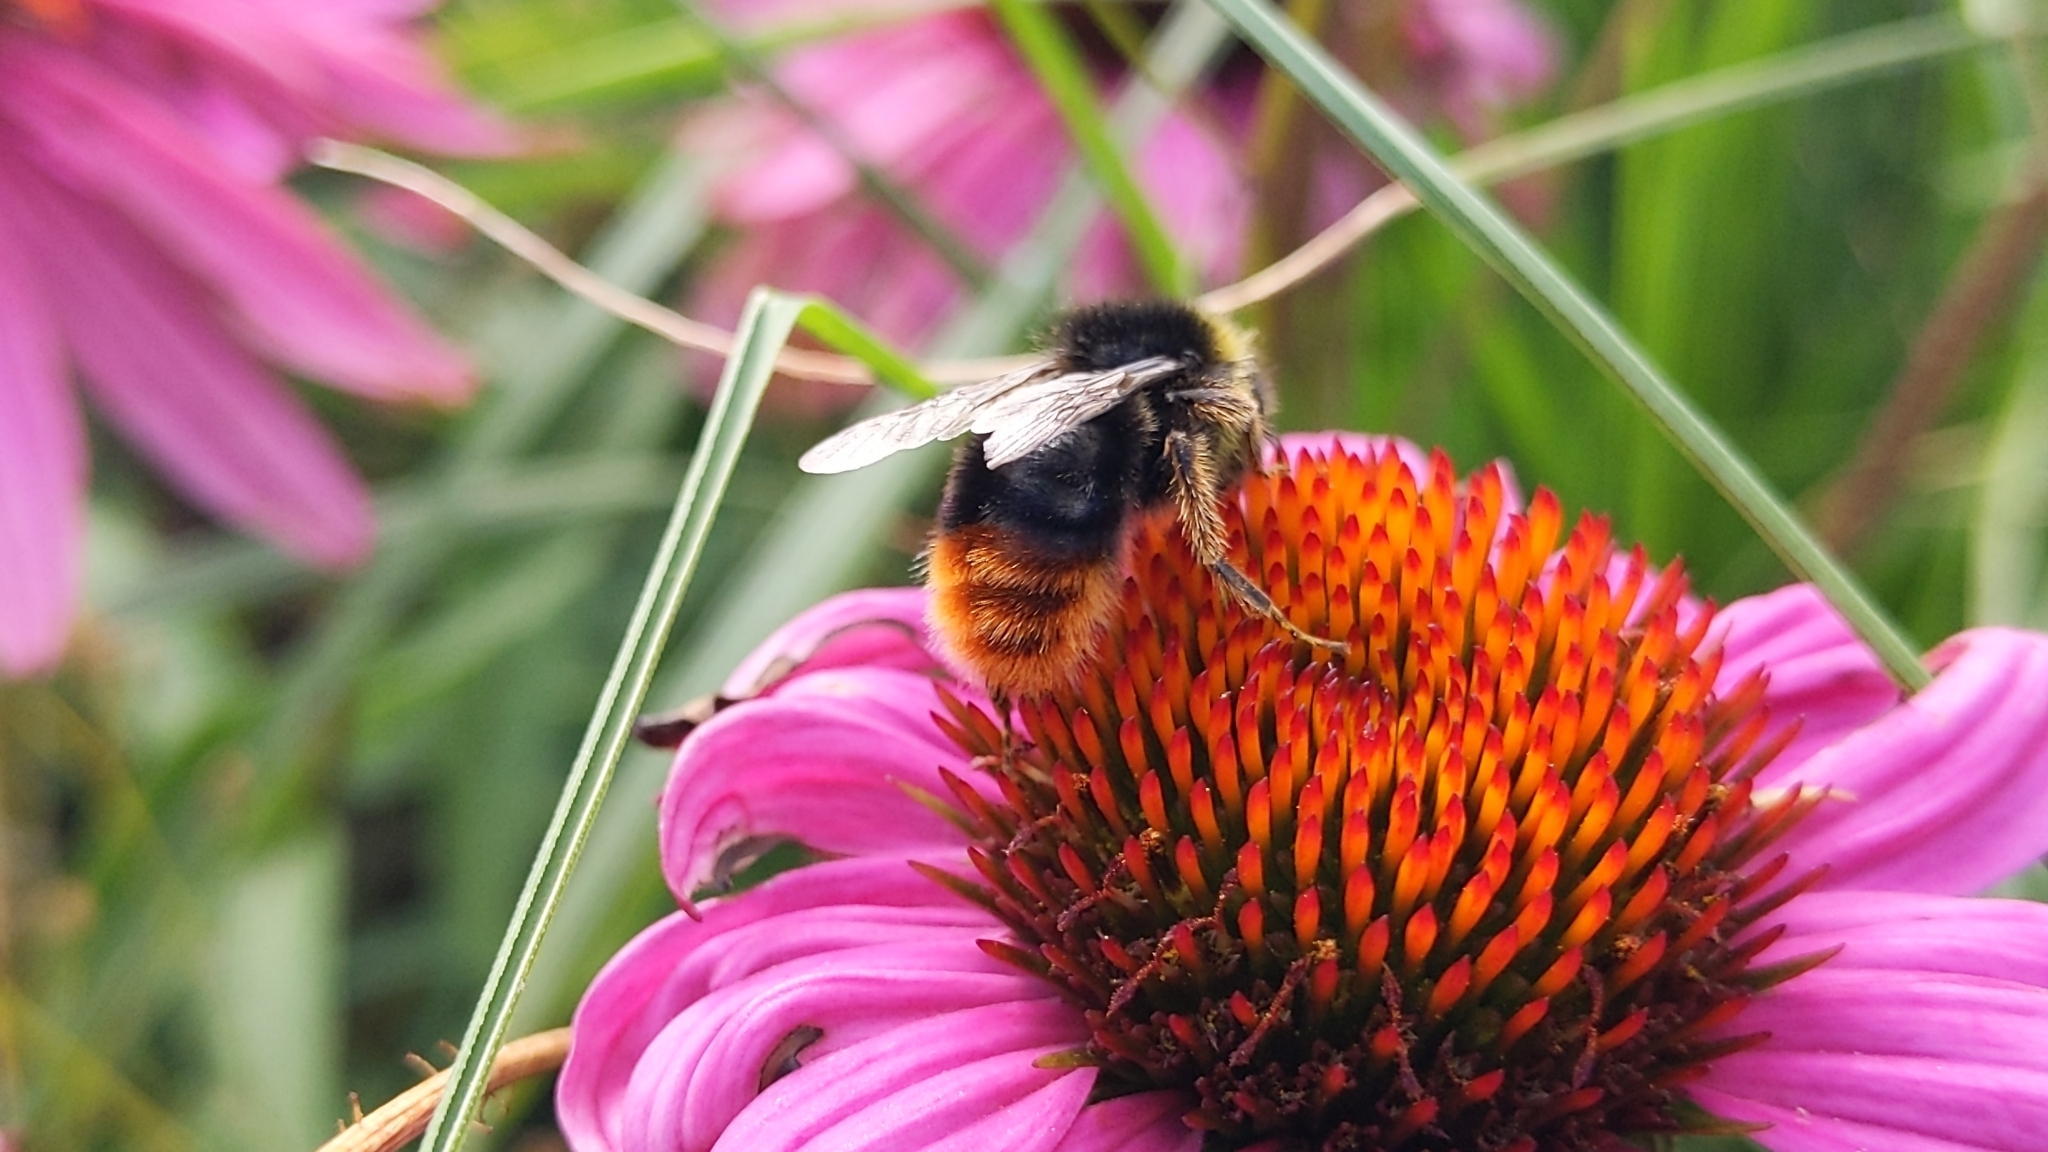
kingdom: Animalia
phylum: Arthropoda
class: Insecta
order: Hymenoptera
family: Apidae
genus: Bombus
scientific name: Bombus lapidarius
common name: Large red-tailed humble-bee
